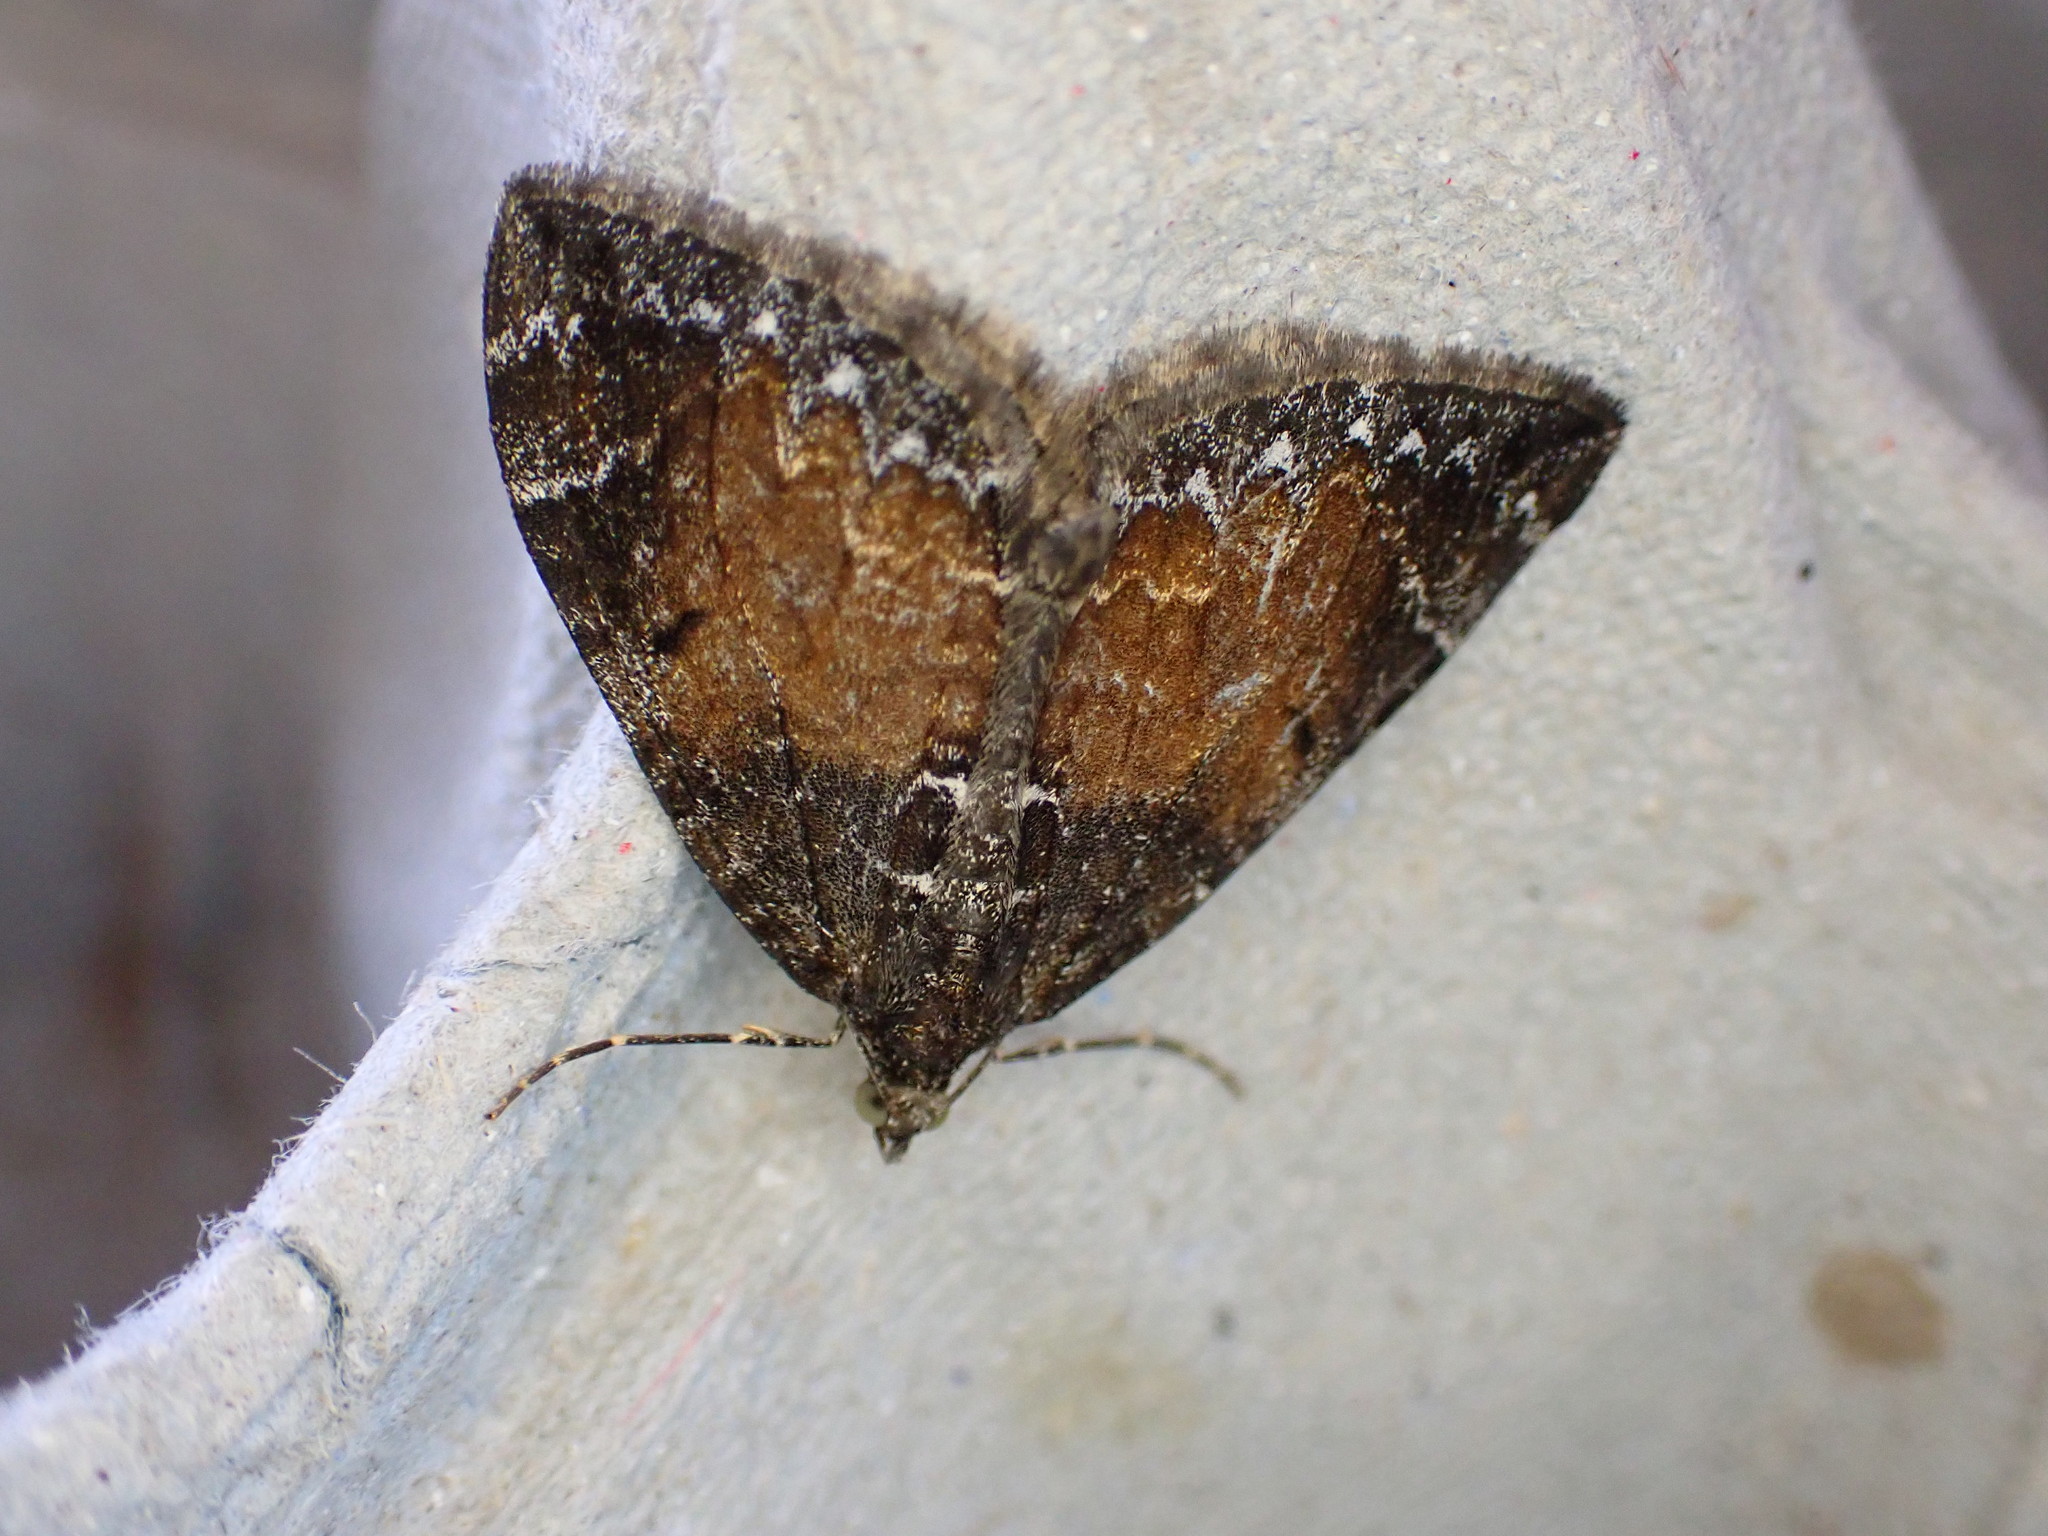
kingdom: Animalia
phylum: Arthropoda
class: Insecta
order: Lepidoptera
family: Geometridae
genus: Dysstroma
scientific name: Dysstroma truncata
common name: Common marbled carpet
